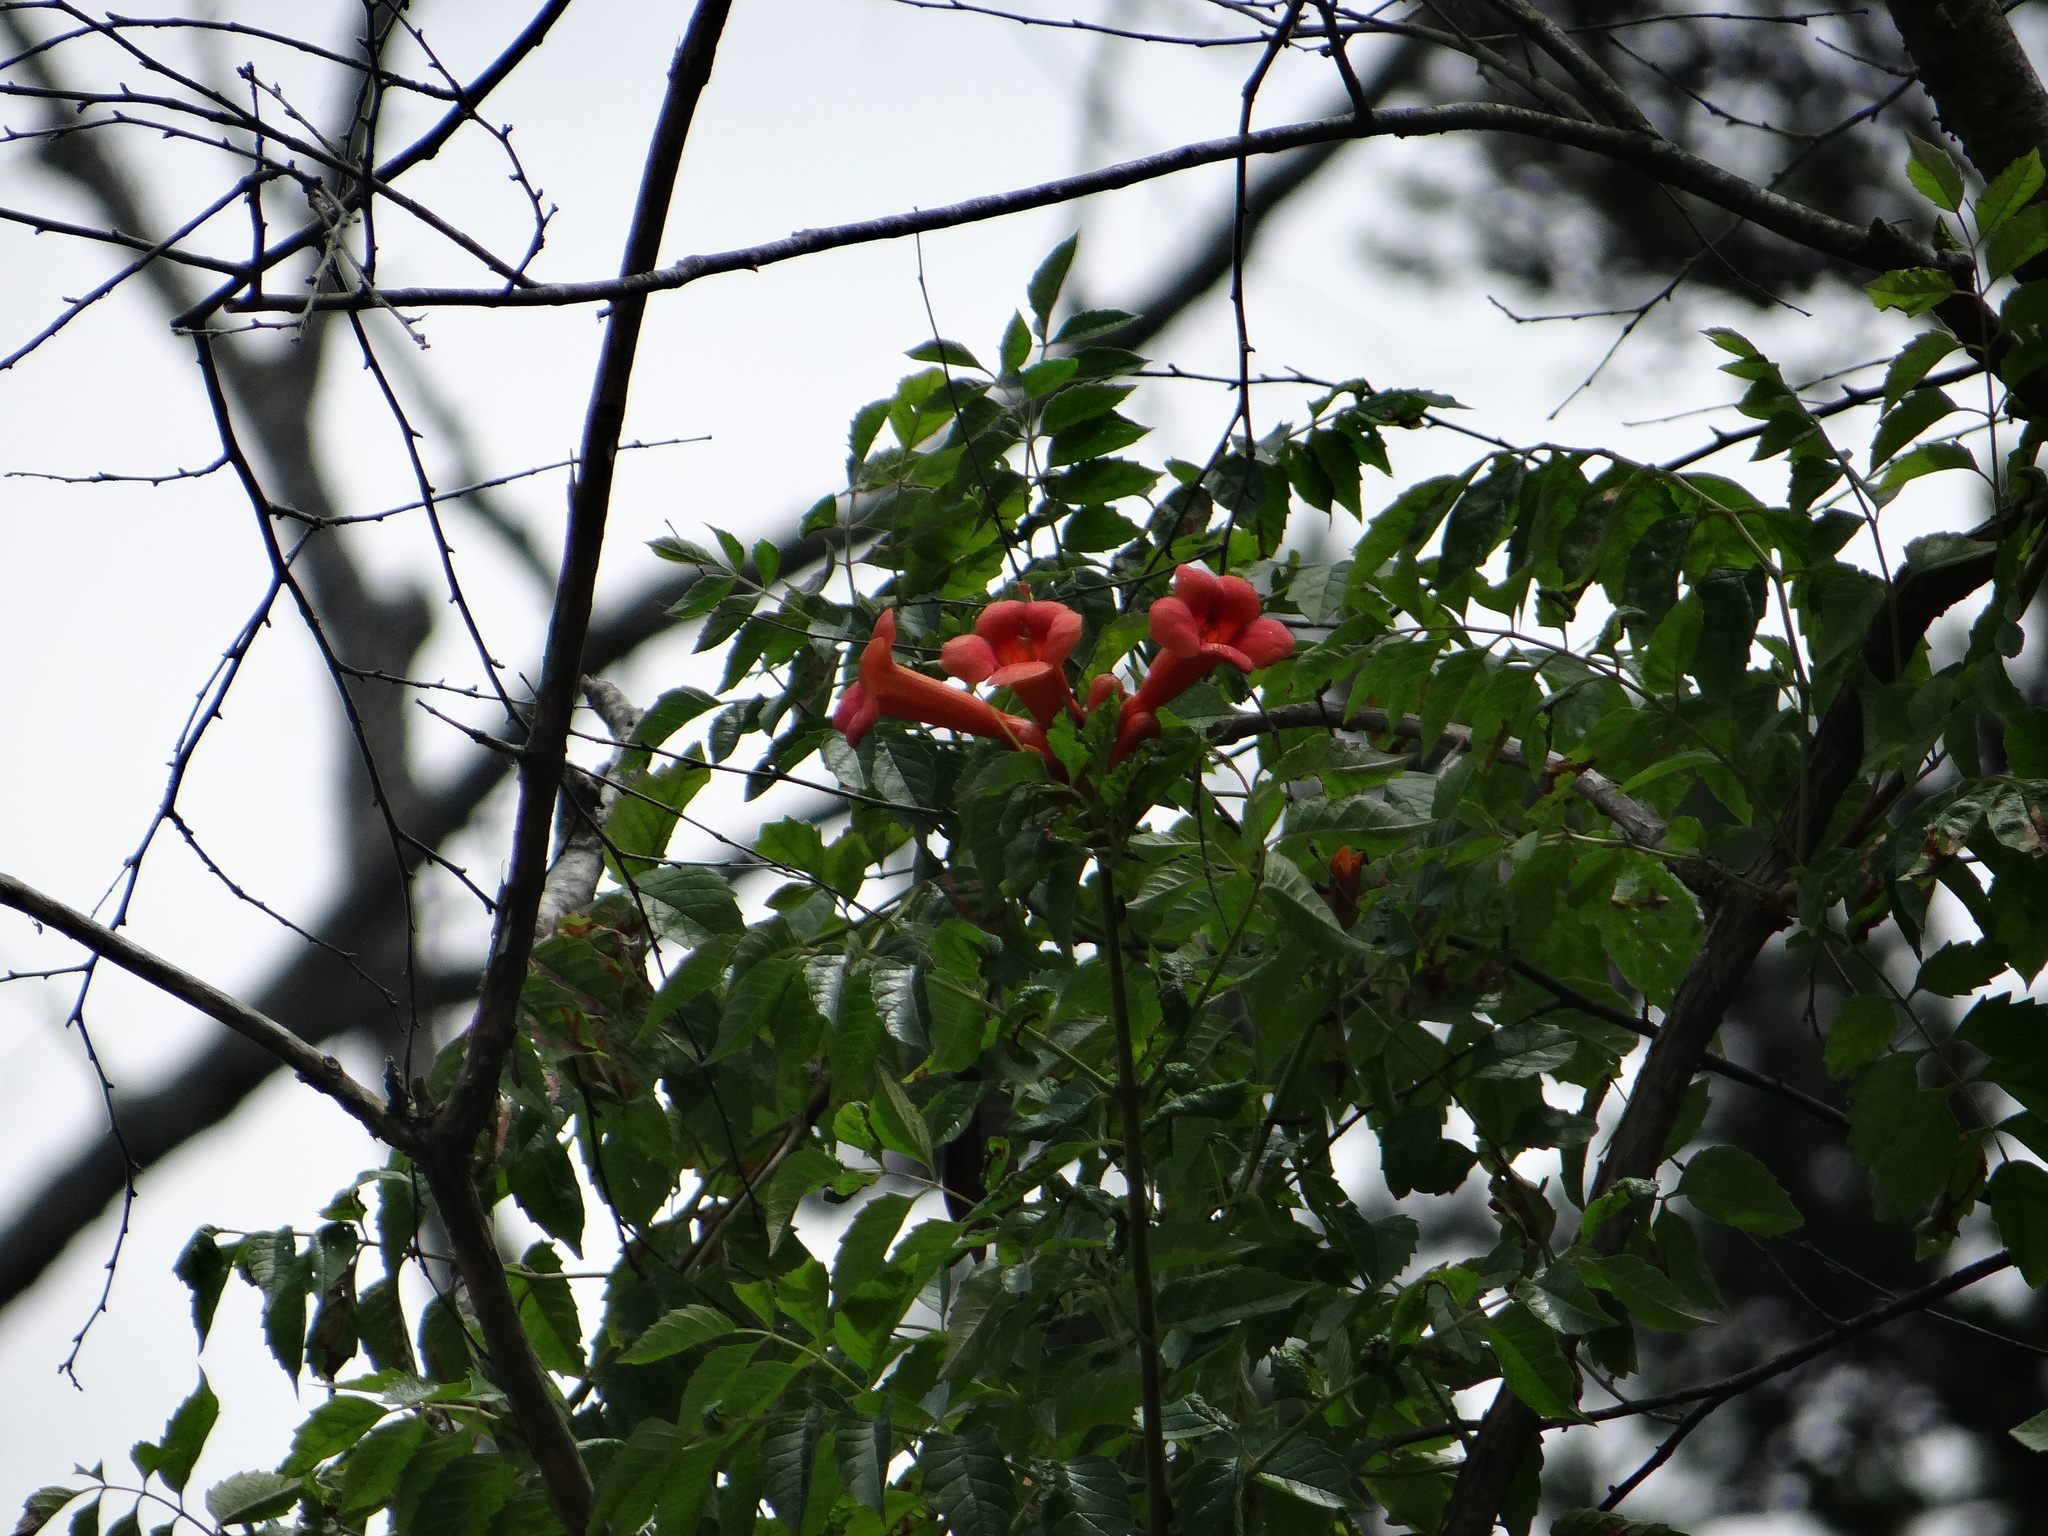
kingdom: Plantae
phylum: Tracheophyta
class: Magnoliopsida
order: Lamiales
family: Bignoniaceae
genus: Campsis
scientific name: Campsis radicans
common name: Trumpet-creeper
